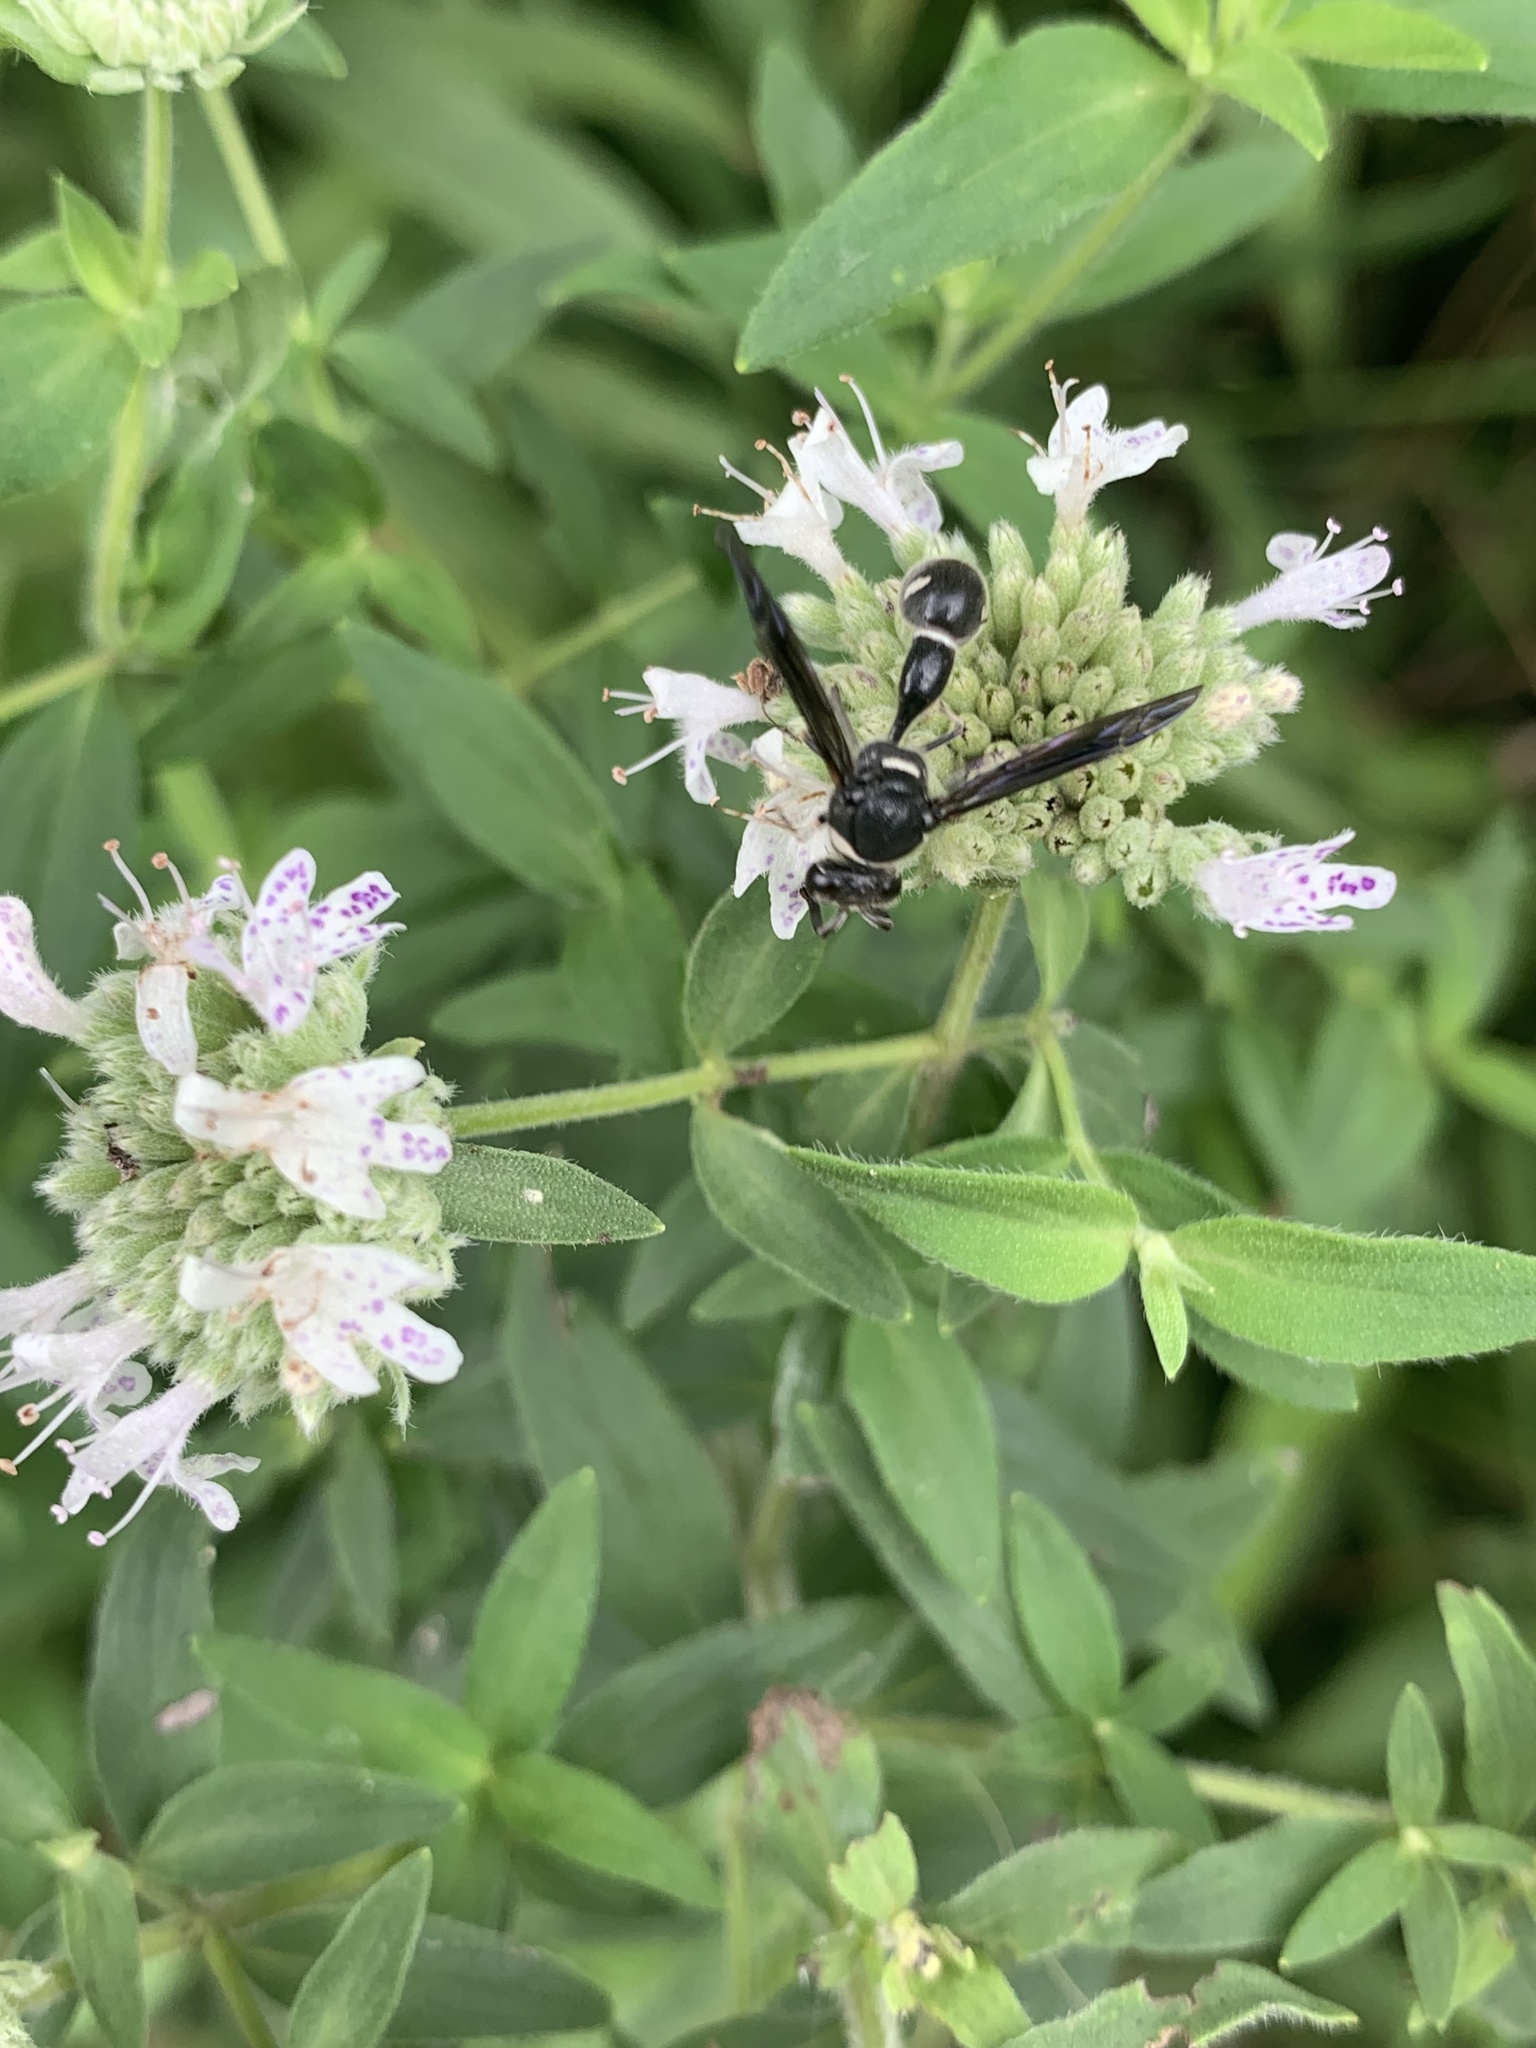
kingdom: Animalia
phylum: Arthropoda
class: Insecta
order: Hymenoptera
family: Vespidae
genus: Eumenes
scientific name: Eumenes fraternus
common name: Fraternal potter wasp
